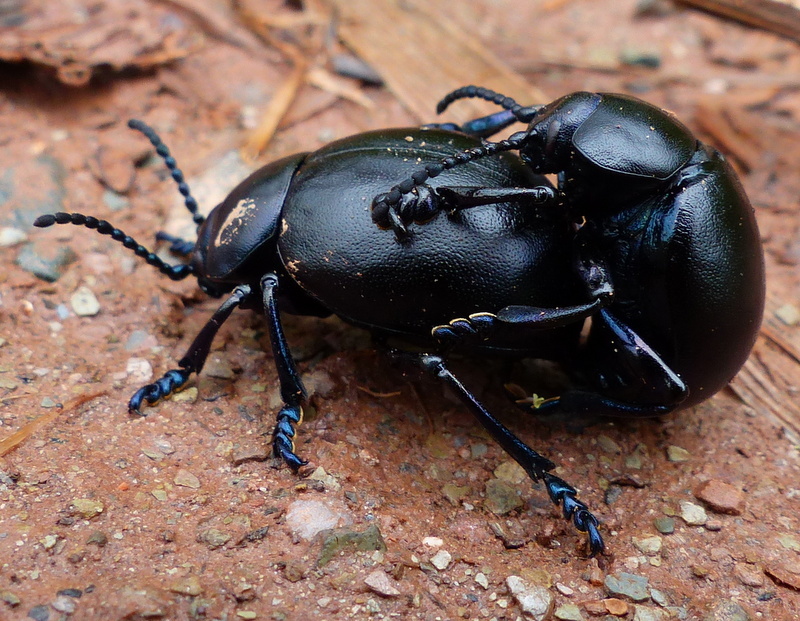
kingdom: Animalia
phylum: Arthropoda
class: Insecta
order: Coleoptera
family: Chrysomelidae
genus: Timarcha
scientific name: Timarcha tenebricosa
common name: Bloody-nosed beetle
